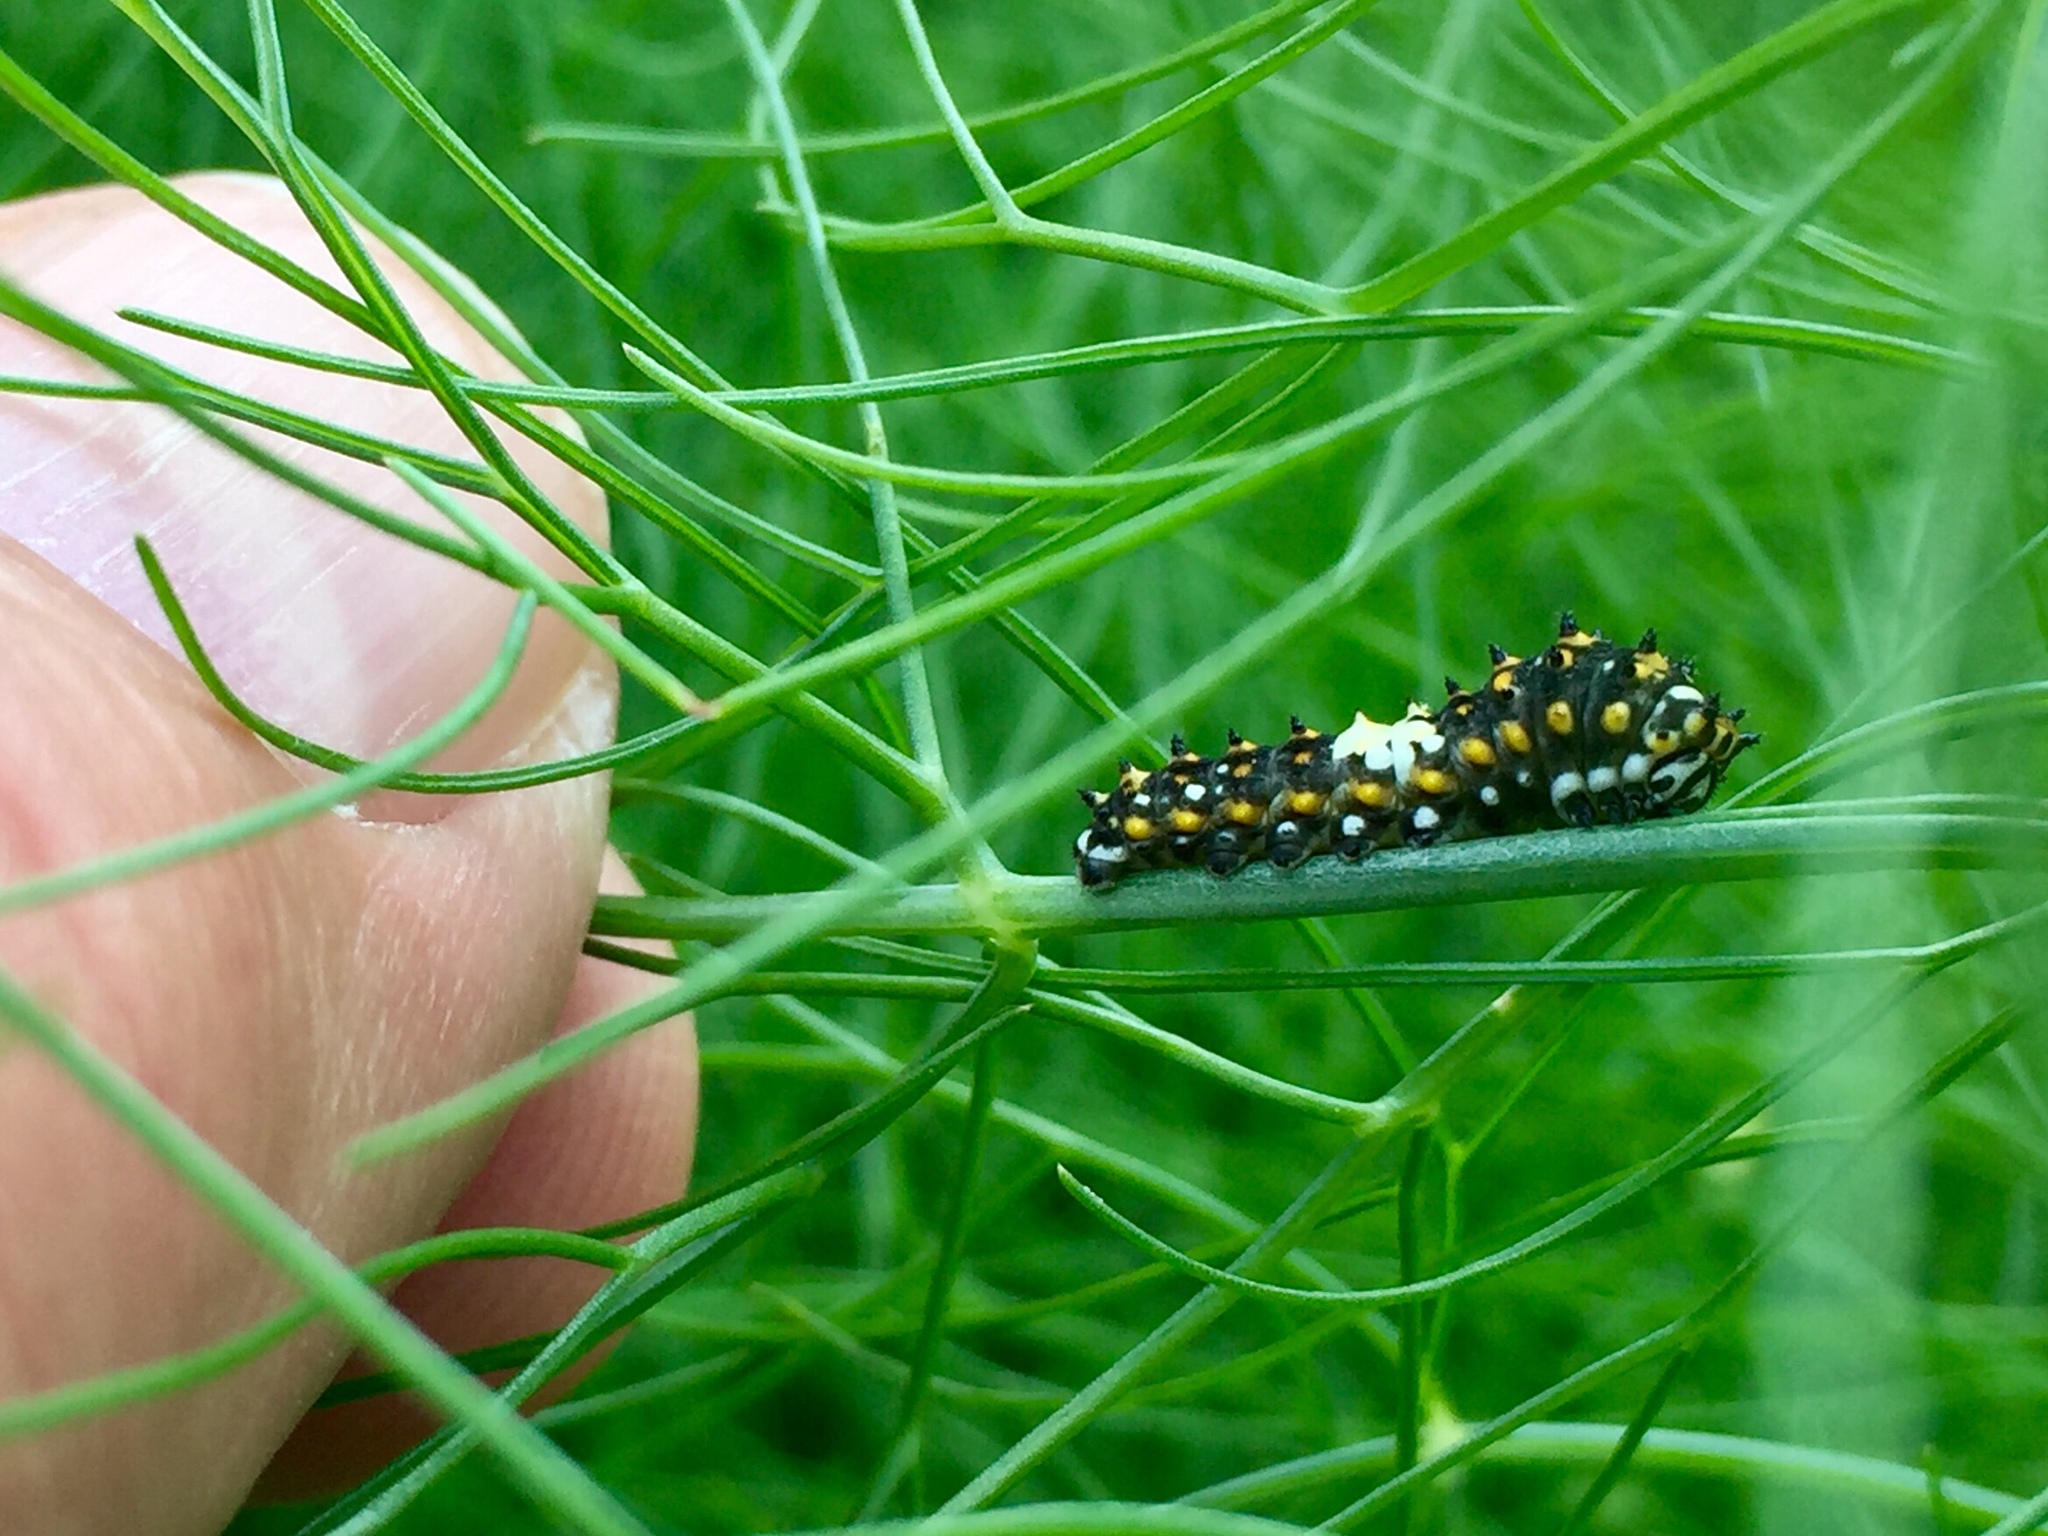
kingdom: Animalia
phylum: Arthropoda
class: Insecta
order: Lepidoptera
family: Papilionidae
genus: Papilio
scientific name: Papilio polyxenes
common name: Black swallowtail
